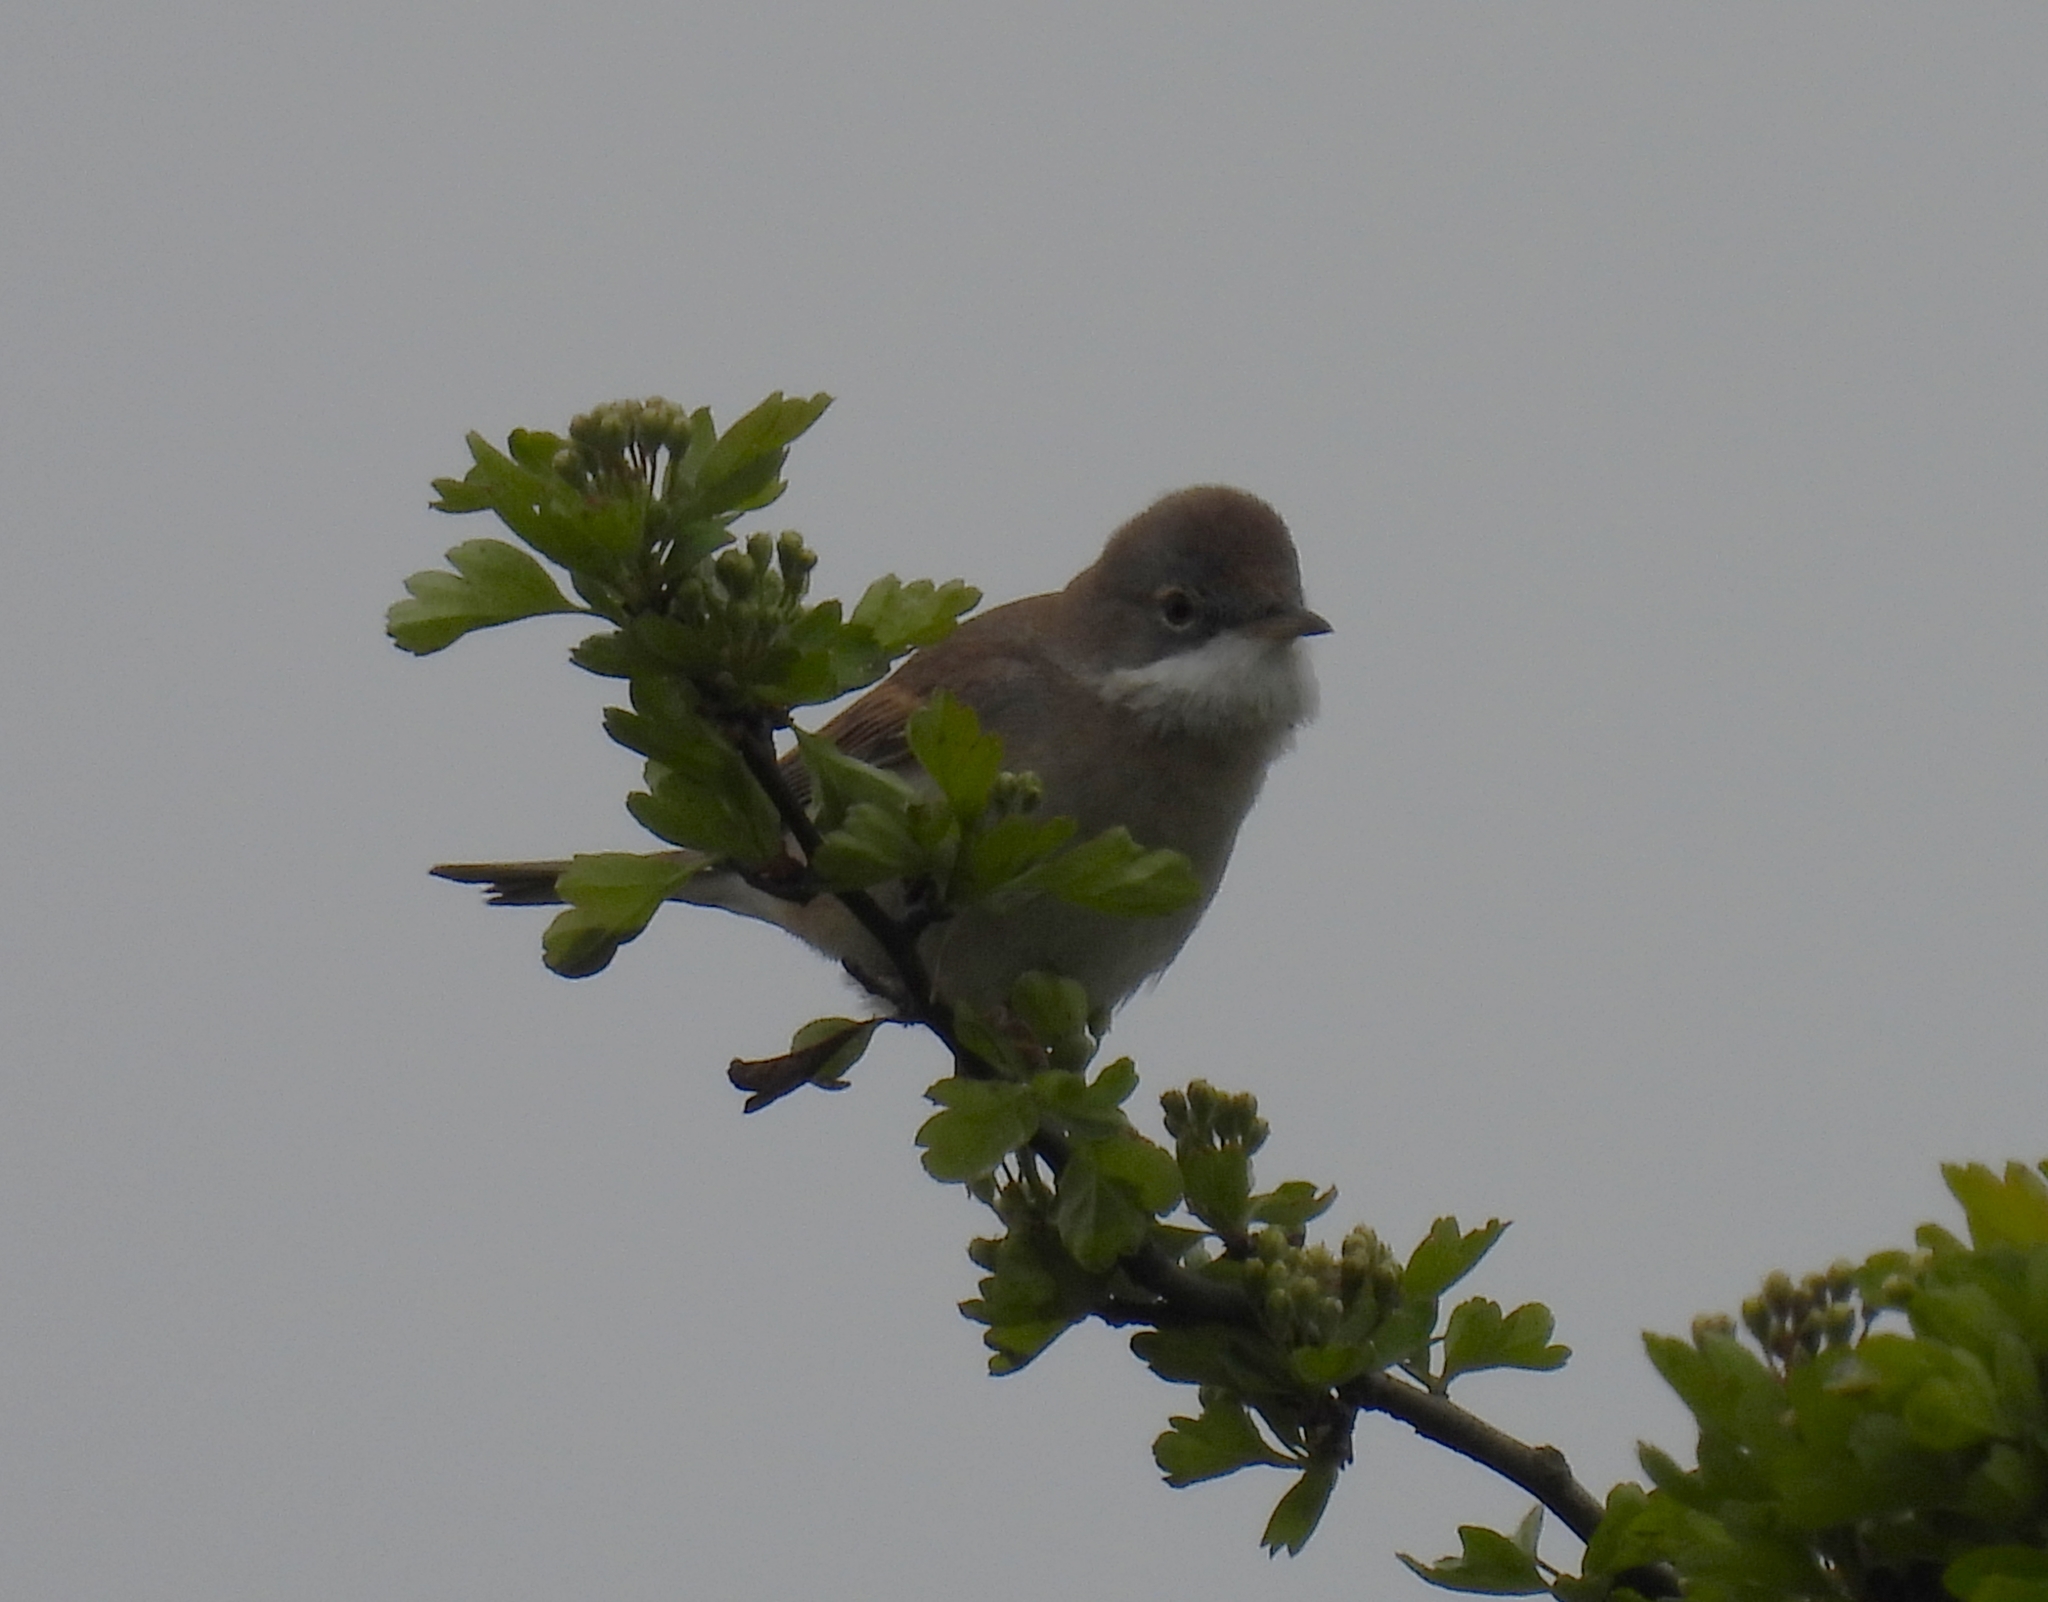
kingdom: Animalia
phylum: Chordata
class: Aves
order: Passeriformes
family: Sylviidae
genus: Sylvia
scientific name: Sylvia communis
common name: Common whitethroat
